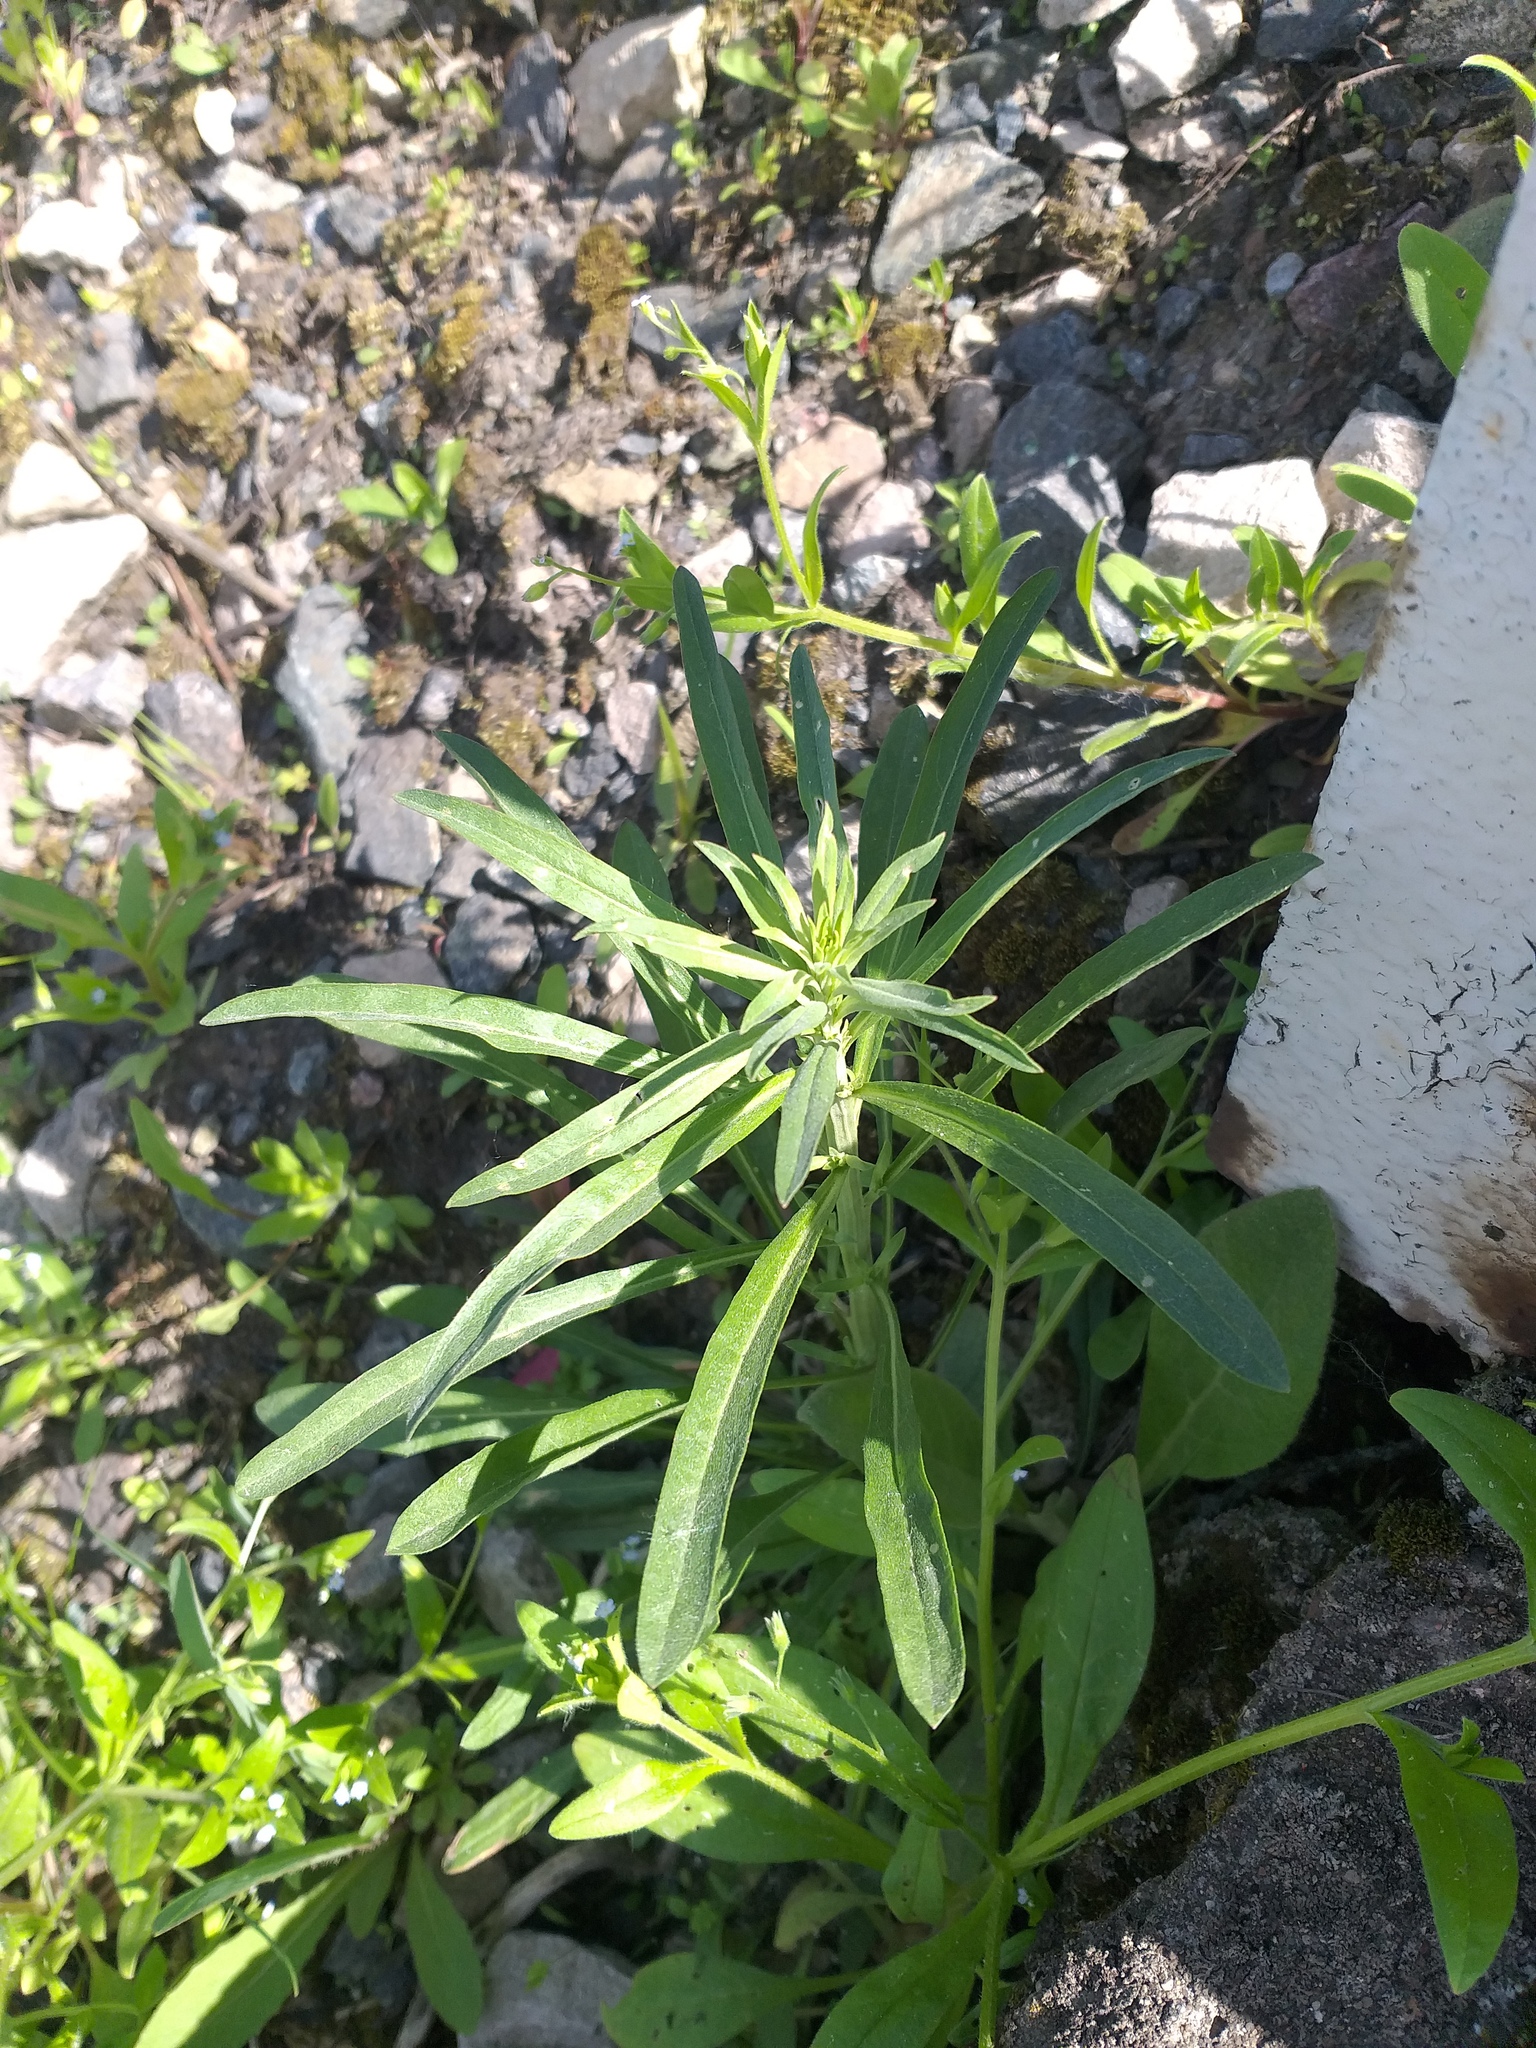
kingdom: Plantae
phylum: Tracheophyta
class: Magnoliopsida
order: Brassicales
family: Brassicaceae
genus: Erysimum
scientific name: Erysimum hieraciifolium
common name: European wallflower
